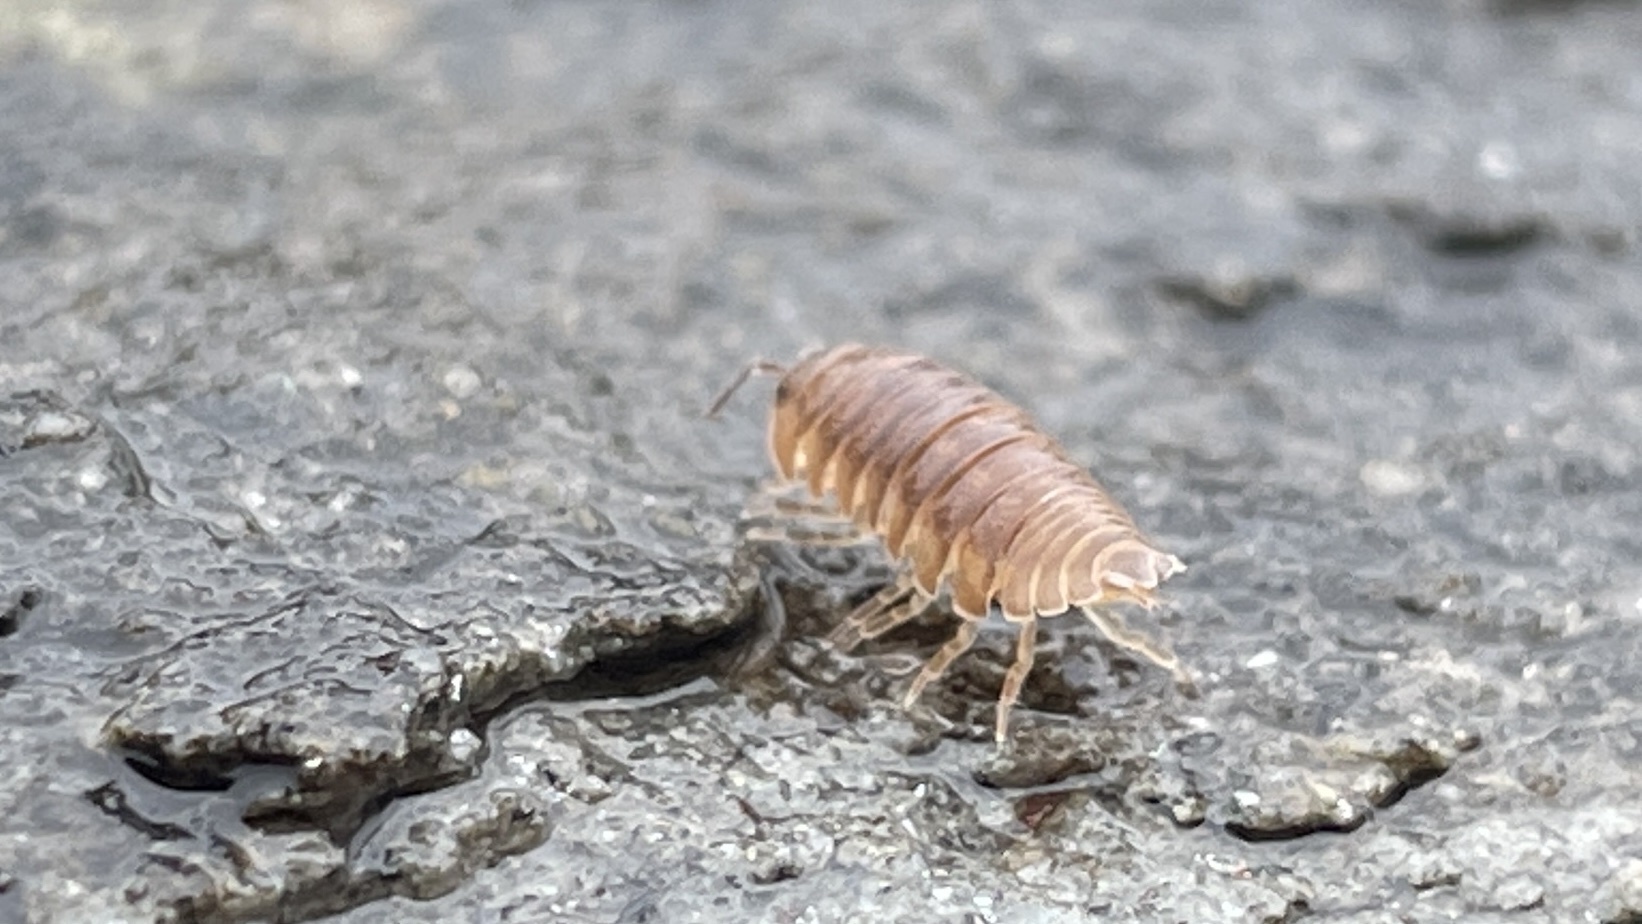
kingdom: Animalia
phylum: Arthropoda
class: Malacostraca
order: Isopoda
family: Armadillidiidae
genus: Armadillidium
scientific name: Armadillidium nasatum
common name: Isopod
